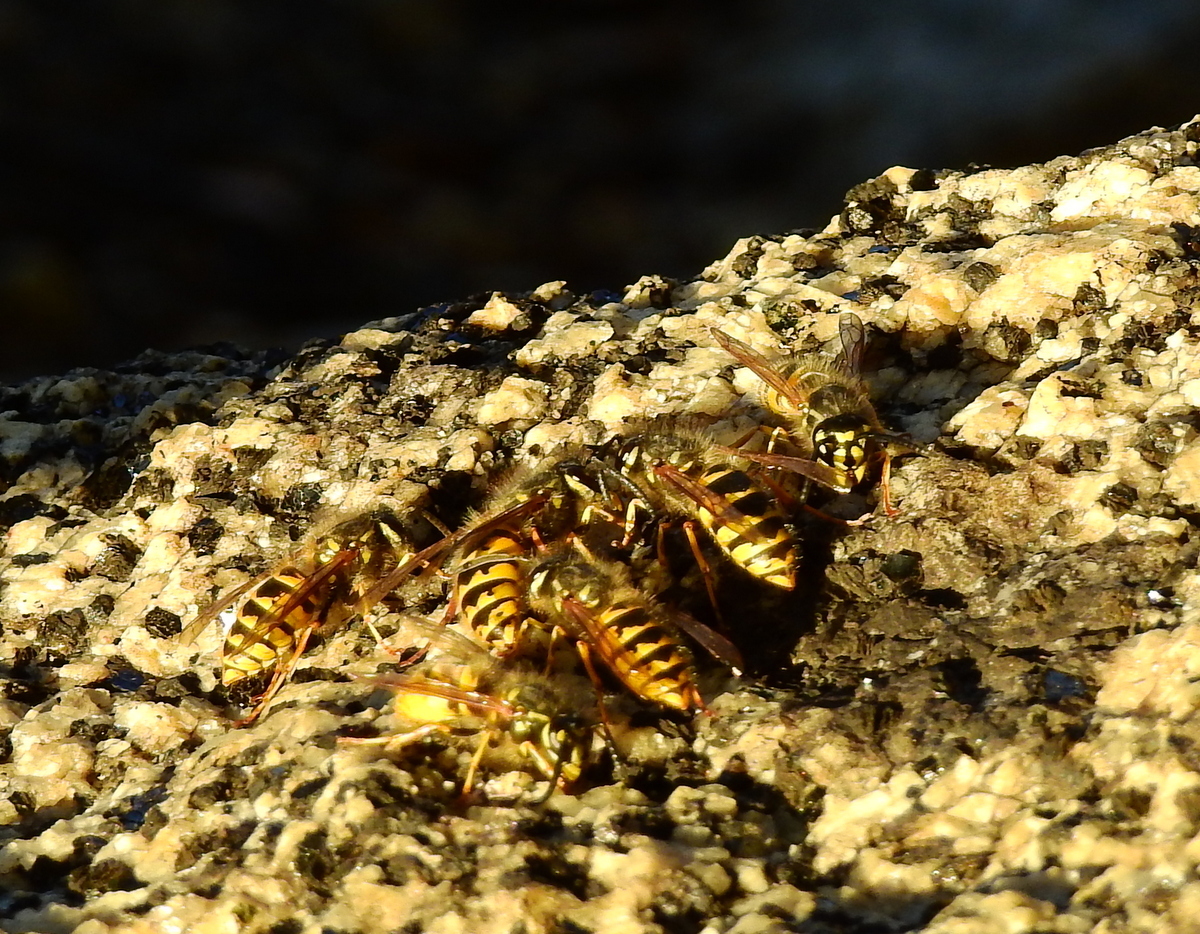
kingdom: Animalia
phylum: Arthropoda
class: Insecta
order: Hymenoptera
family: Vespidae
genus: Vespula
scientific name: Vespula vulgaris
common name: Common wasp
